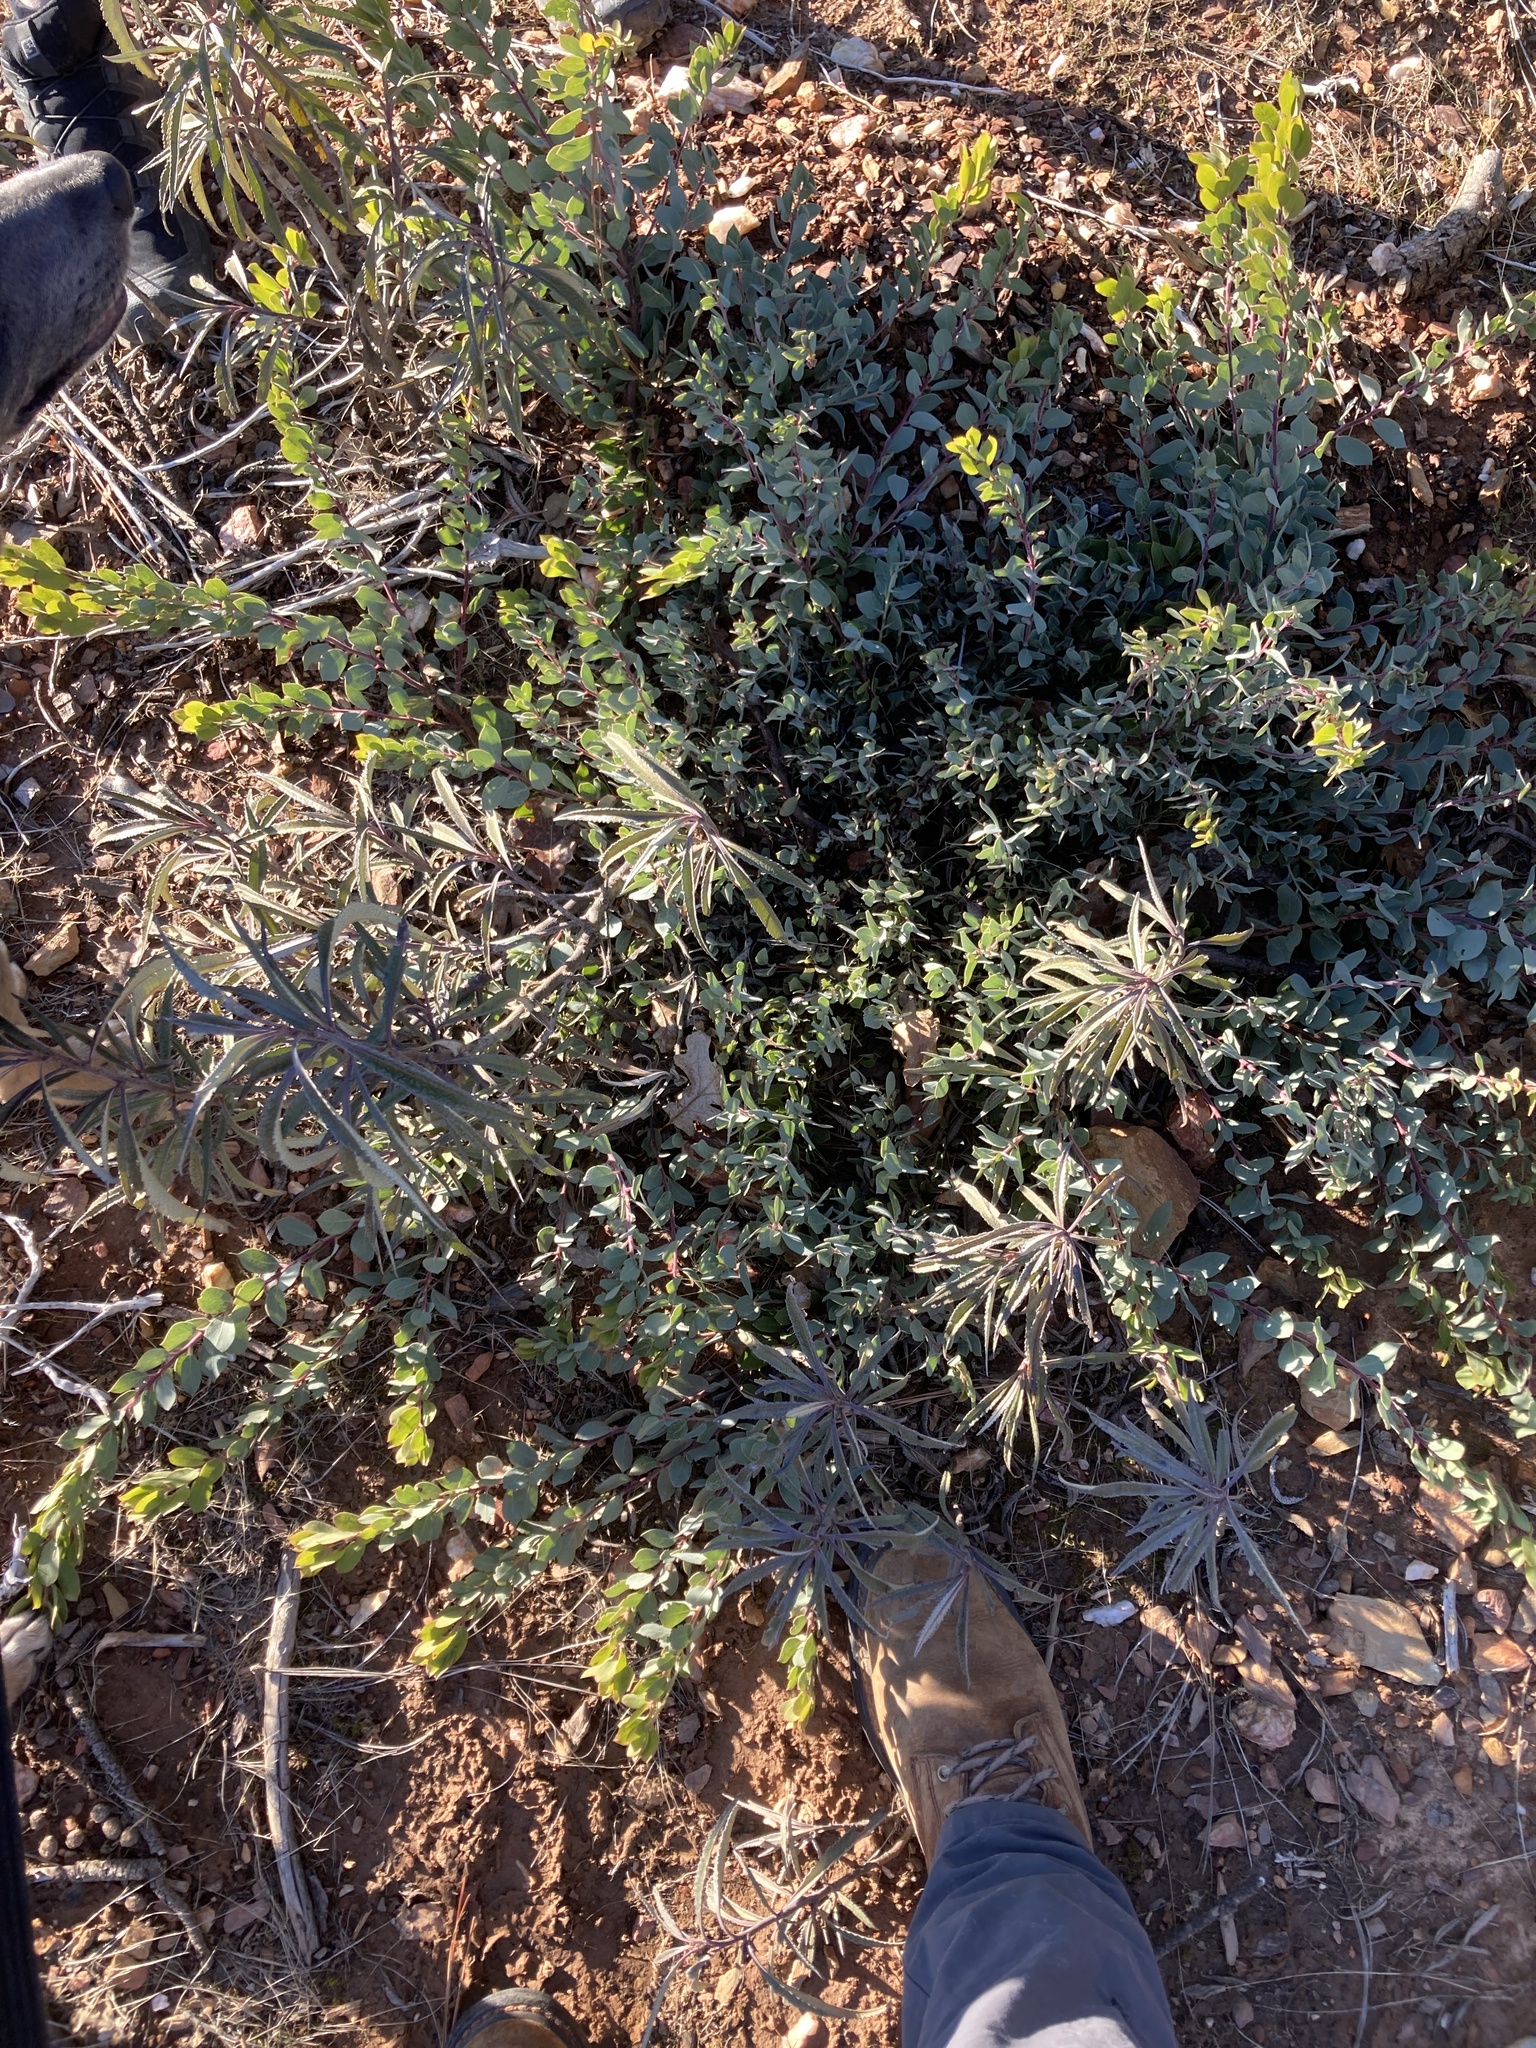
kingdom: Plantae
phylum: Tracheophyta
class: Magnoliopsida
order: Ericales
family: Ericaceae
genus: Arctostaphylos
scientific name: Arctostaphylos nissenana
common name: Nissenan manzanita
